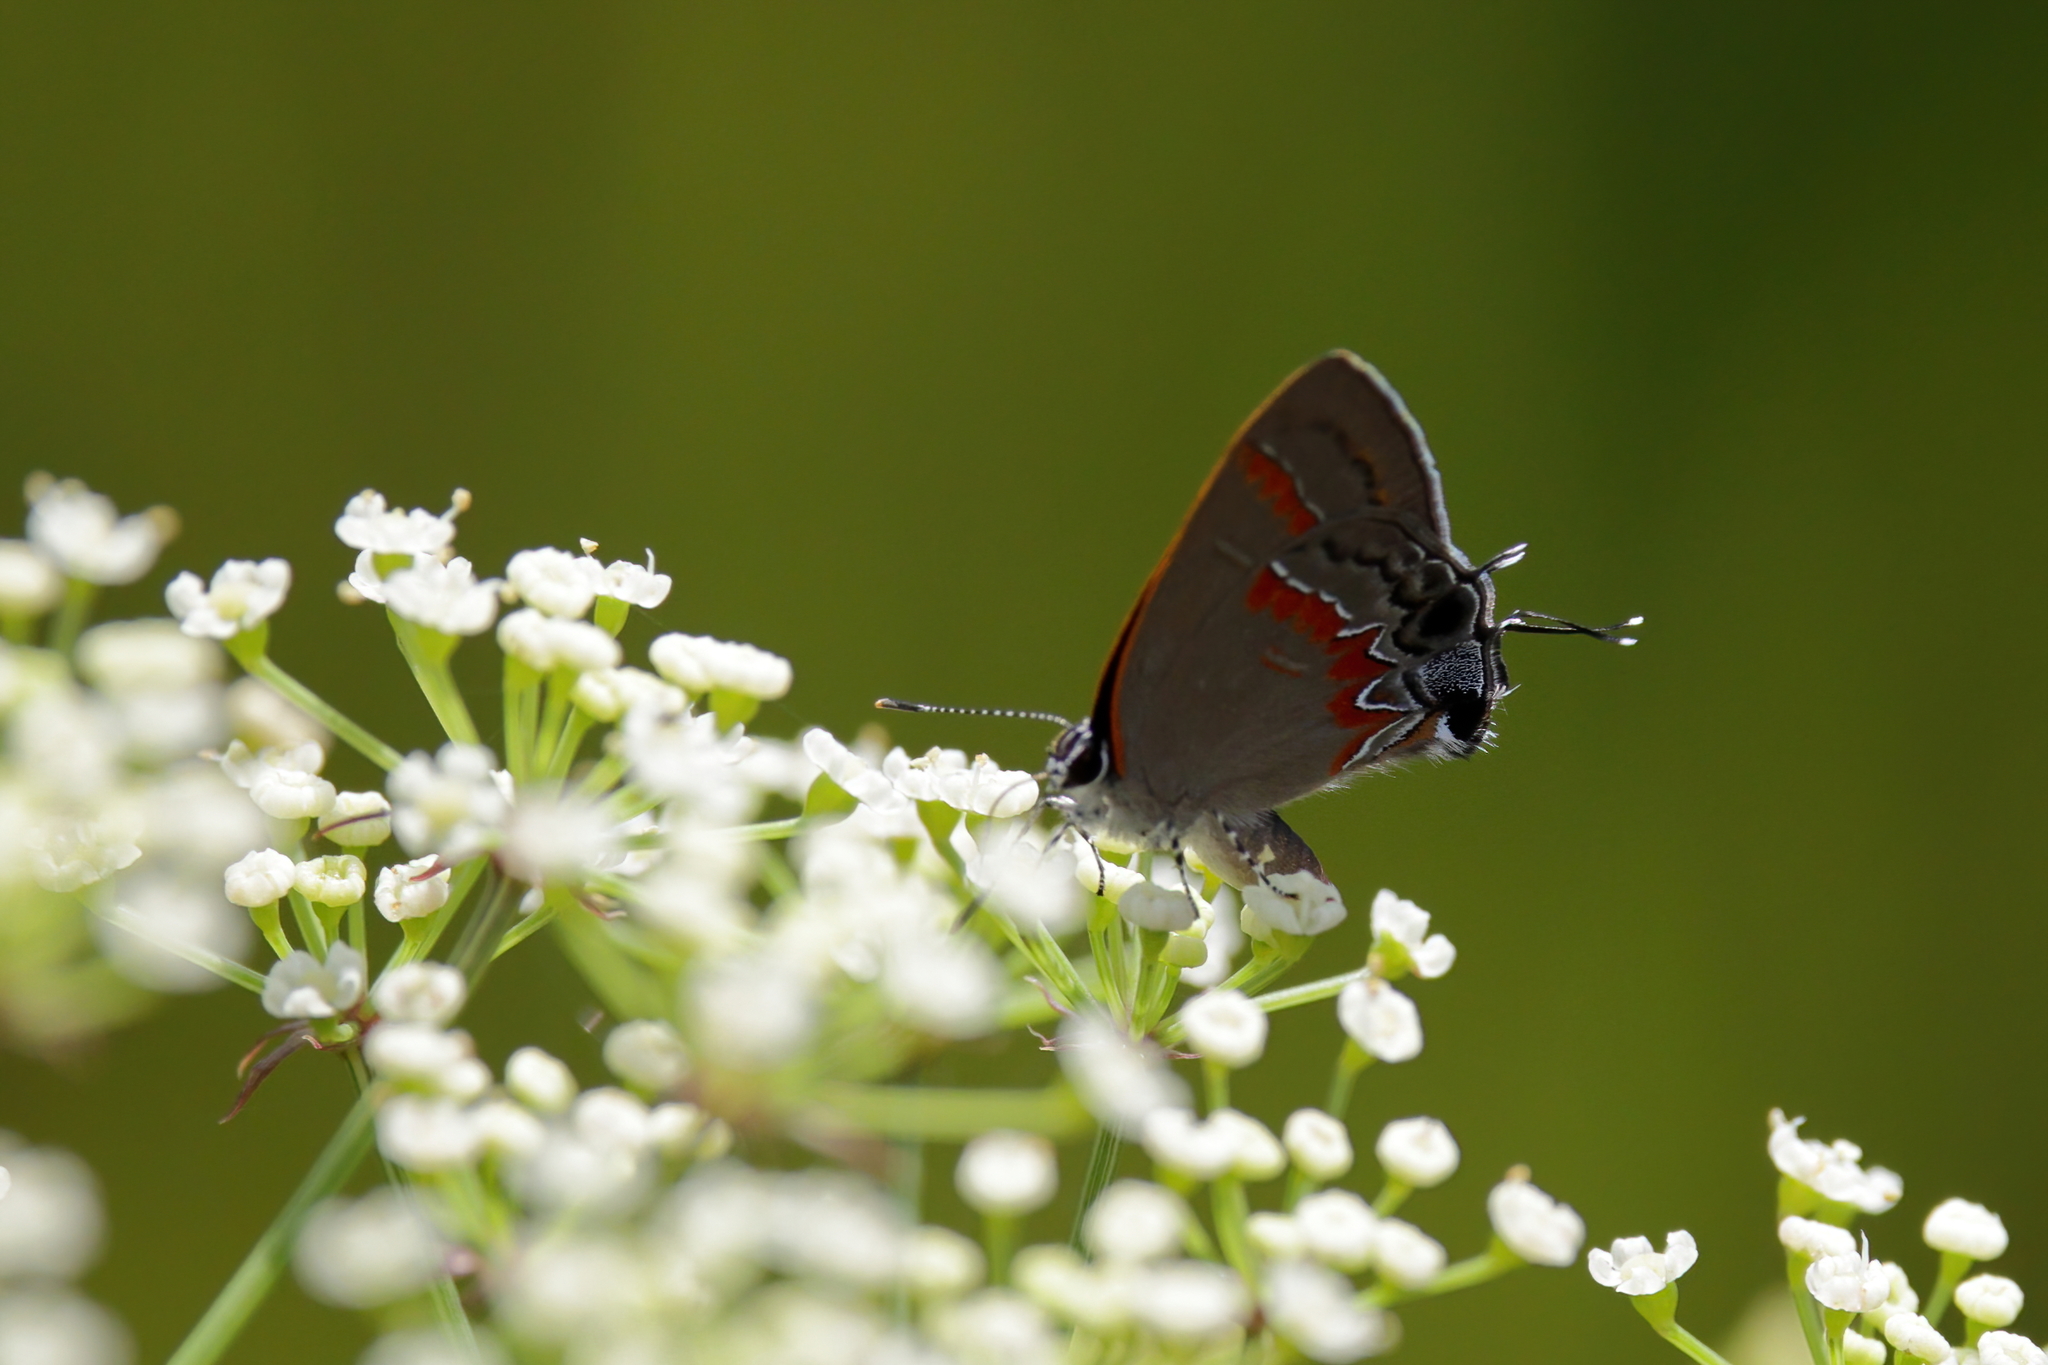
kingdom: Animalia
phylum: Arthropoda
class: Insecta
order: Lepidoptera
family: Lycaenidae
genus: Calycopis
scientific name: Calycopis cecrops
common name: Red-banded hairstreak
